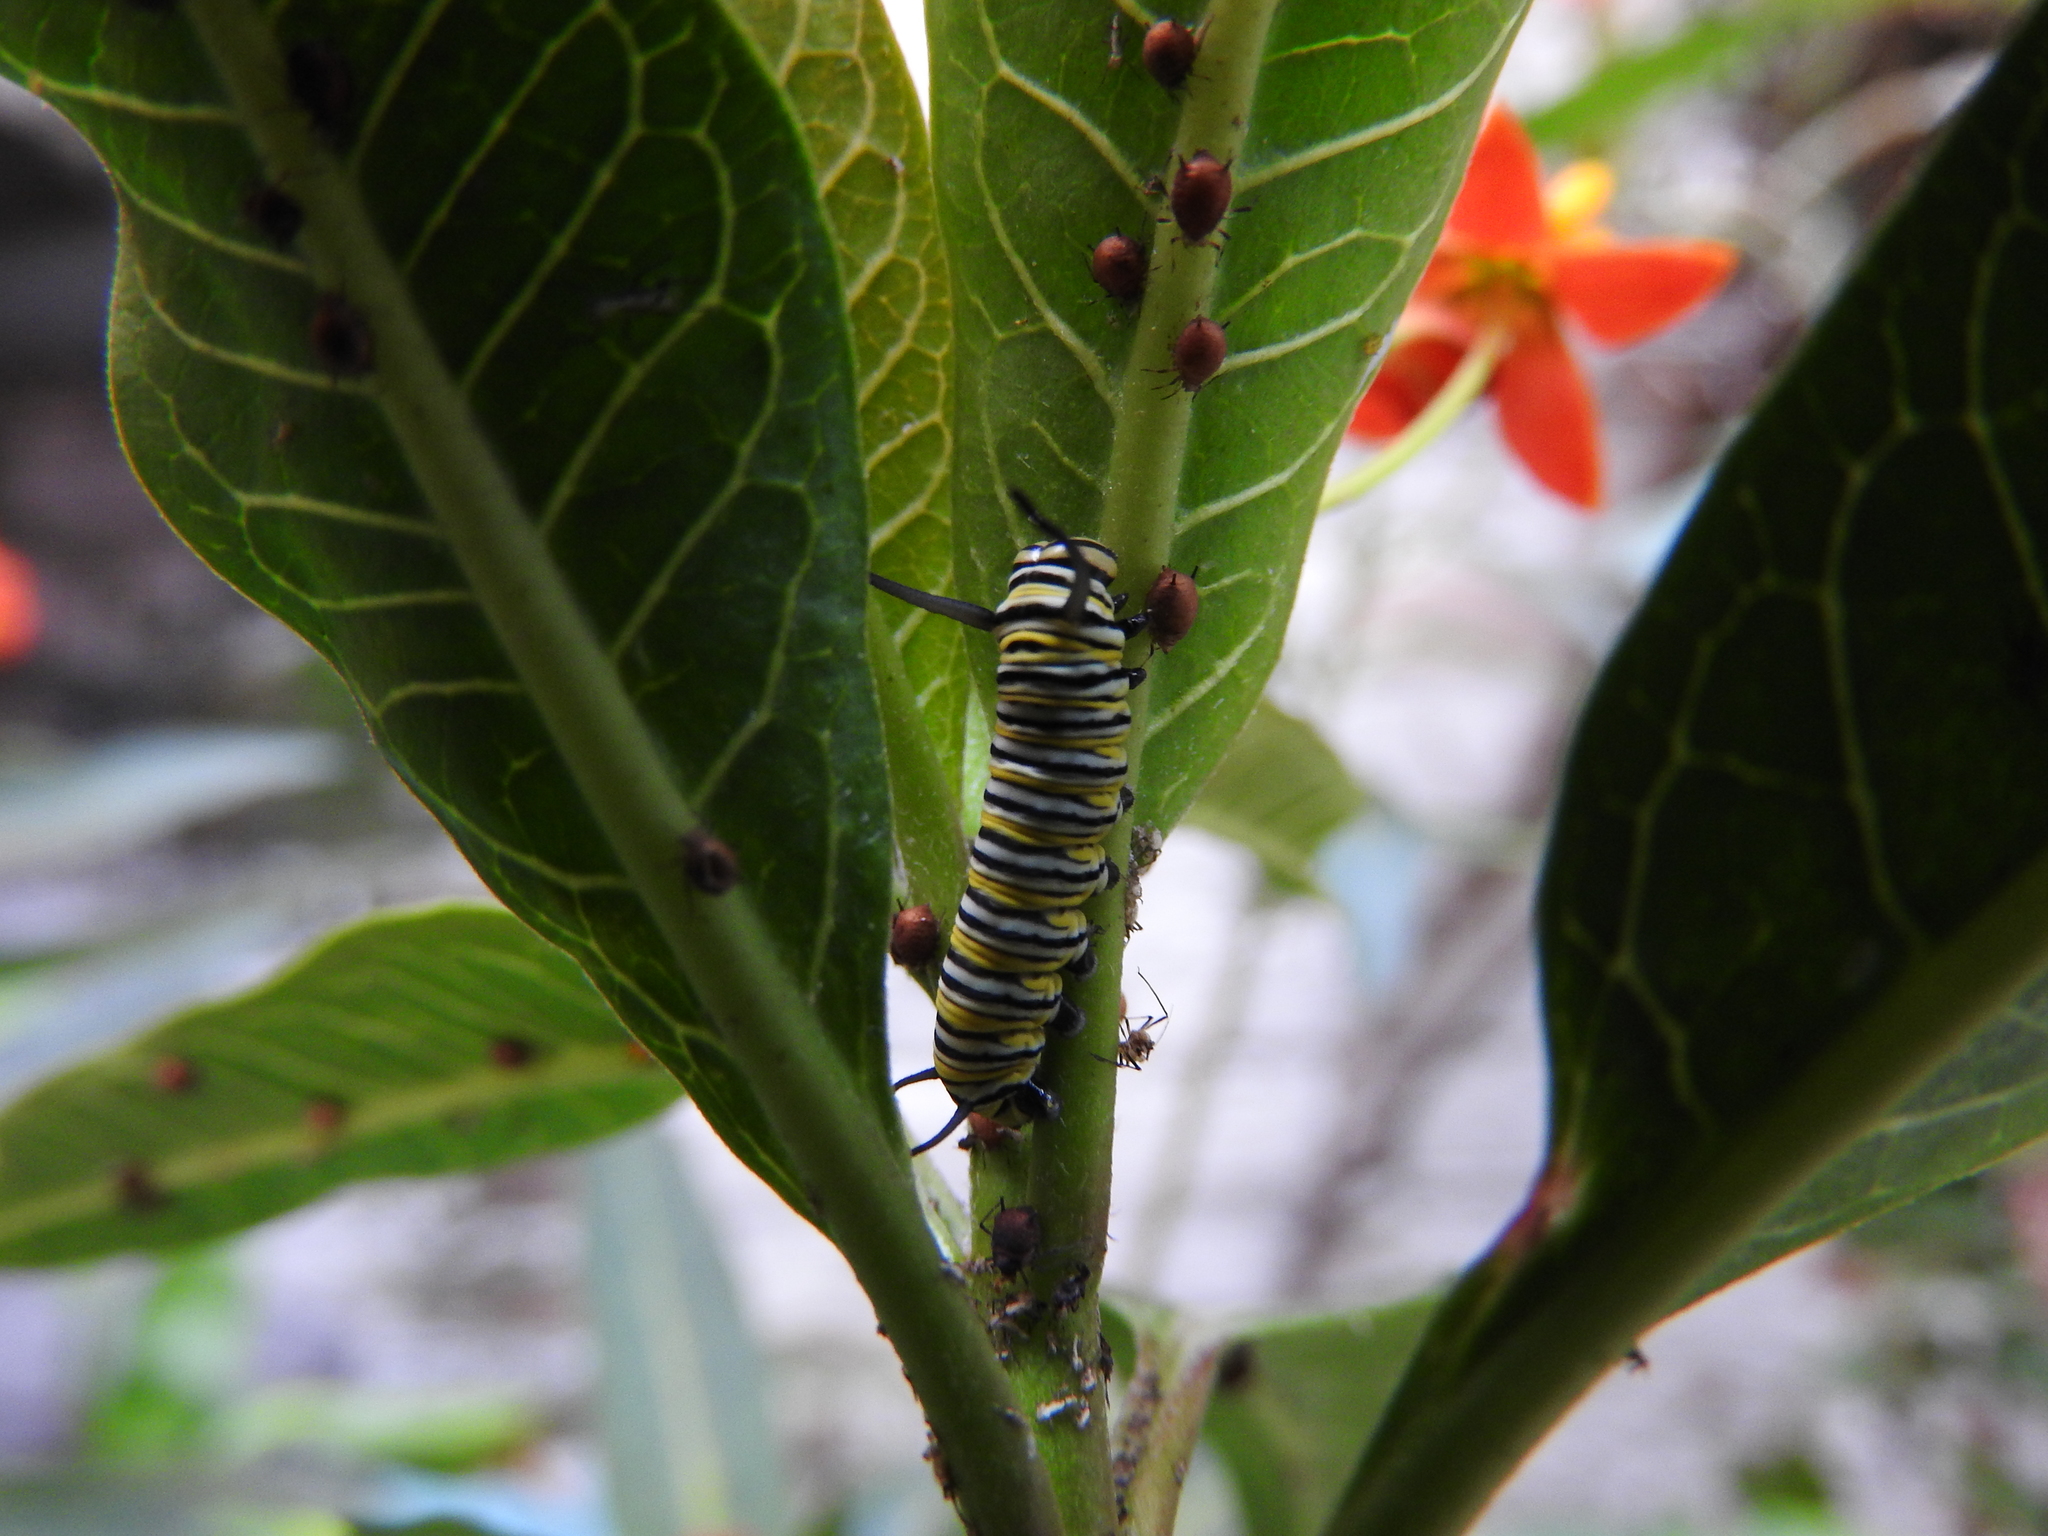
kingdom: Animalia
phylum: Arthropoda
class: Insecta
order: Lepidoptera
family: Nymphalidae
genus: Danaus
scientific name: Danaus plexippus
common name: Monarch
